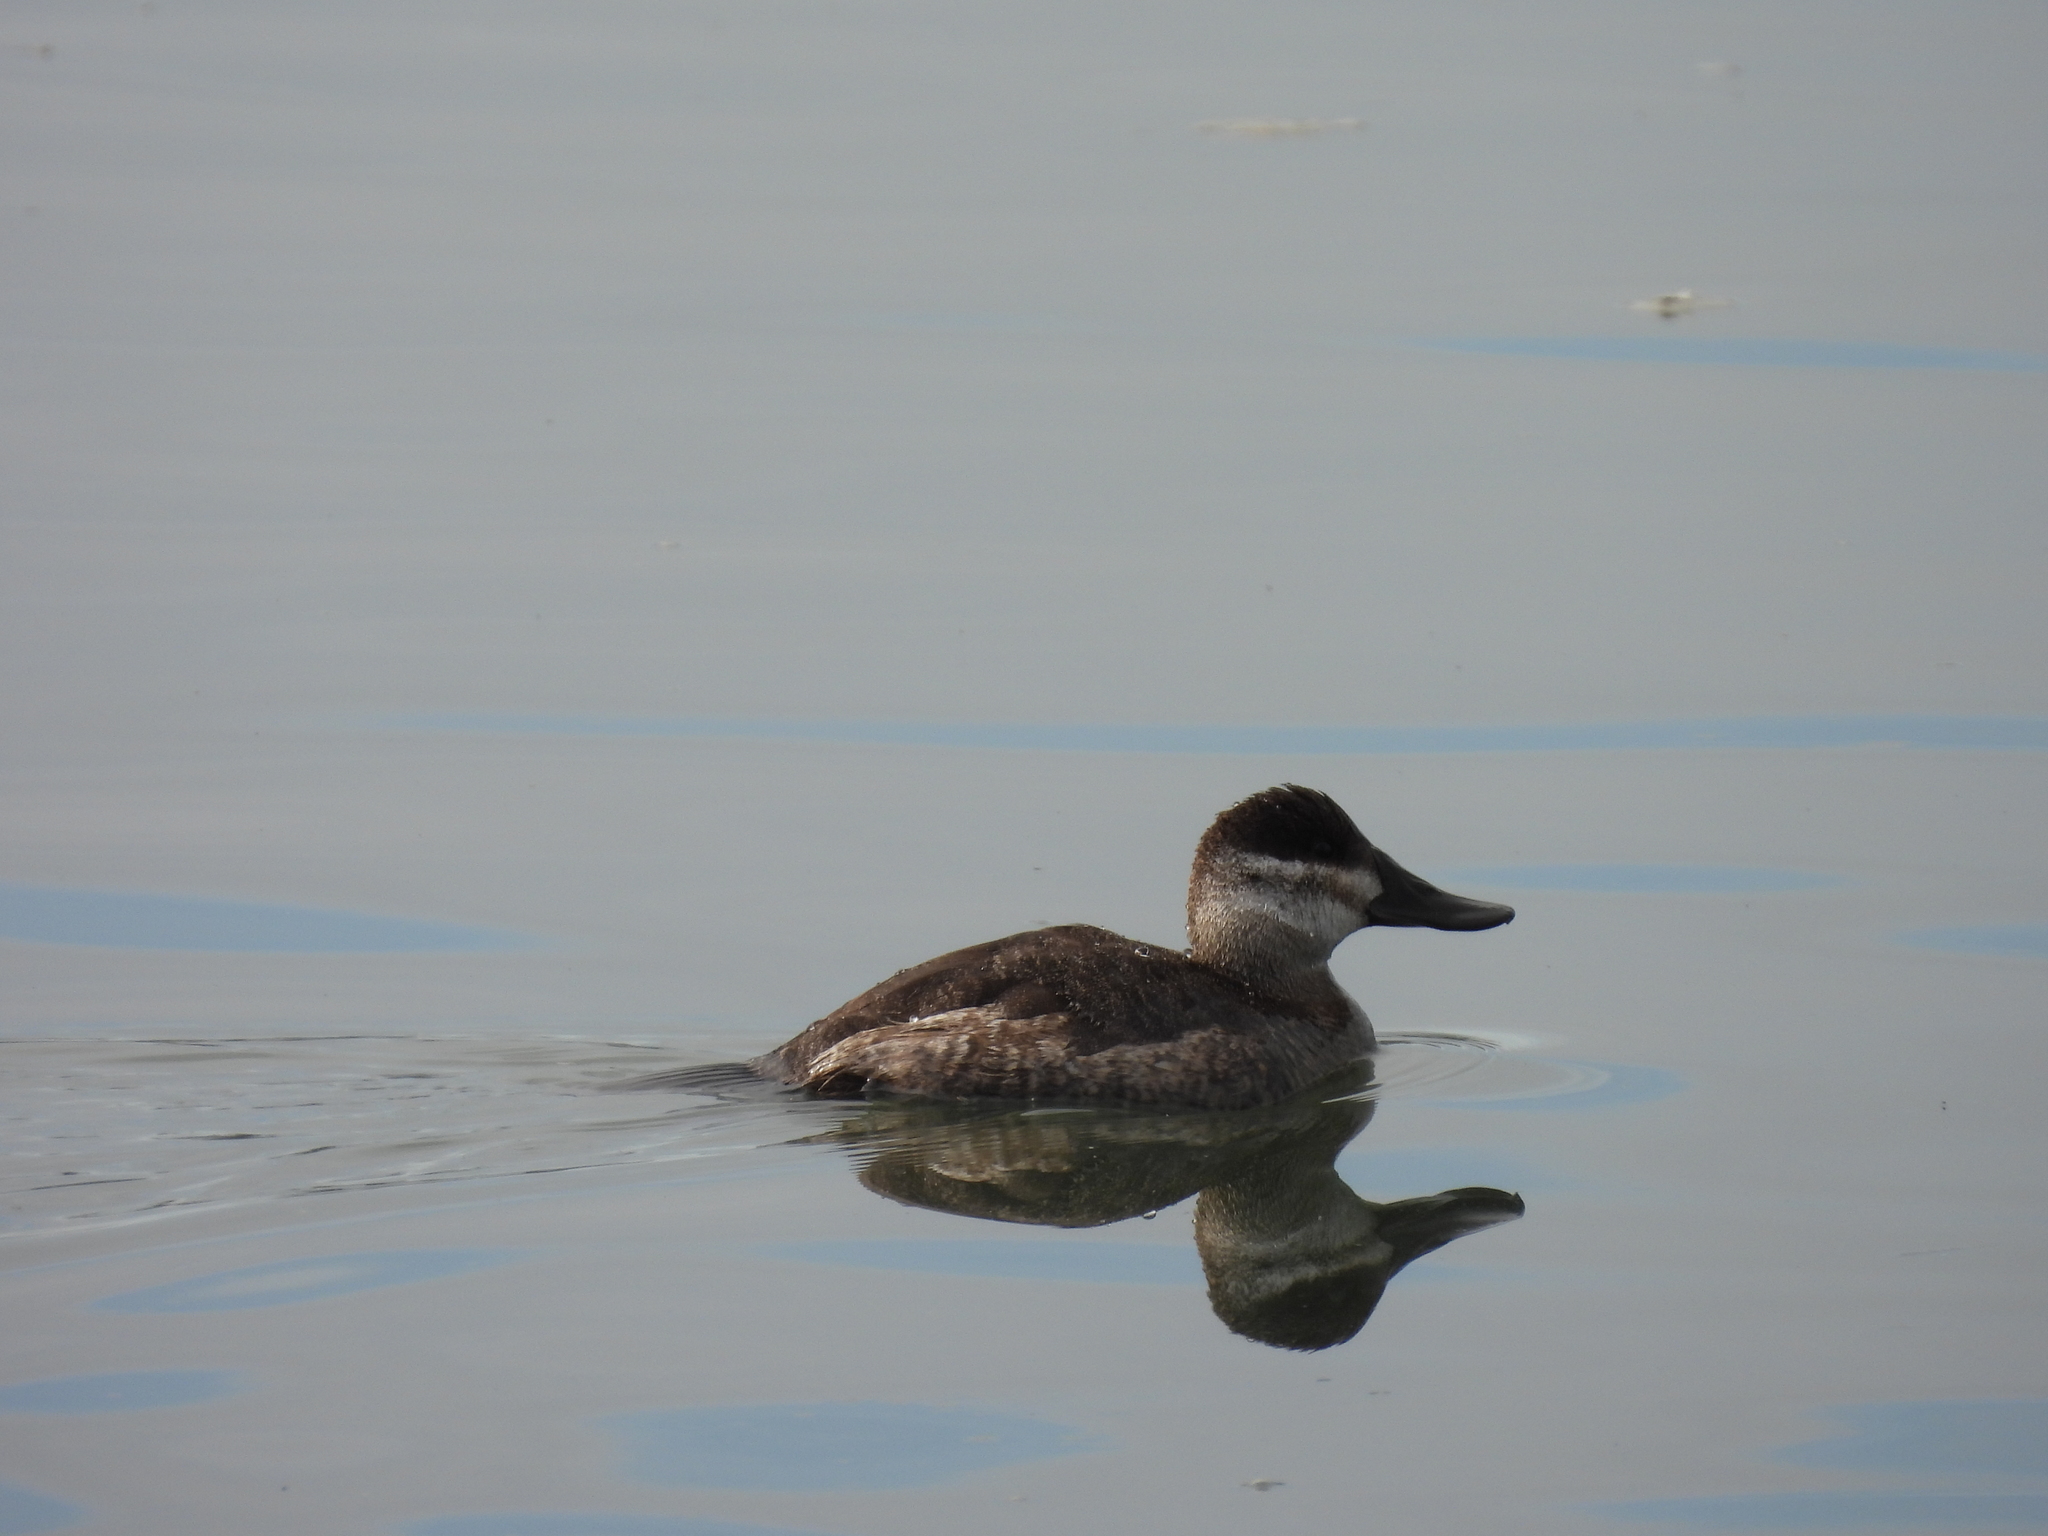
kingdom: Animalia
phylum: Chordata
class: Aves
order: Anseriformes
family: Anatidae
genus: Oxyura
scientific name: Oxyura jamaicensis
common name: Ruddy duck
